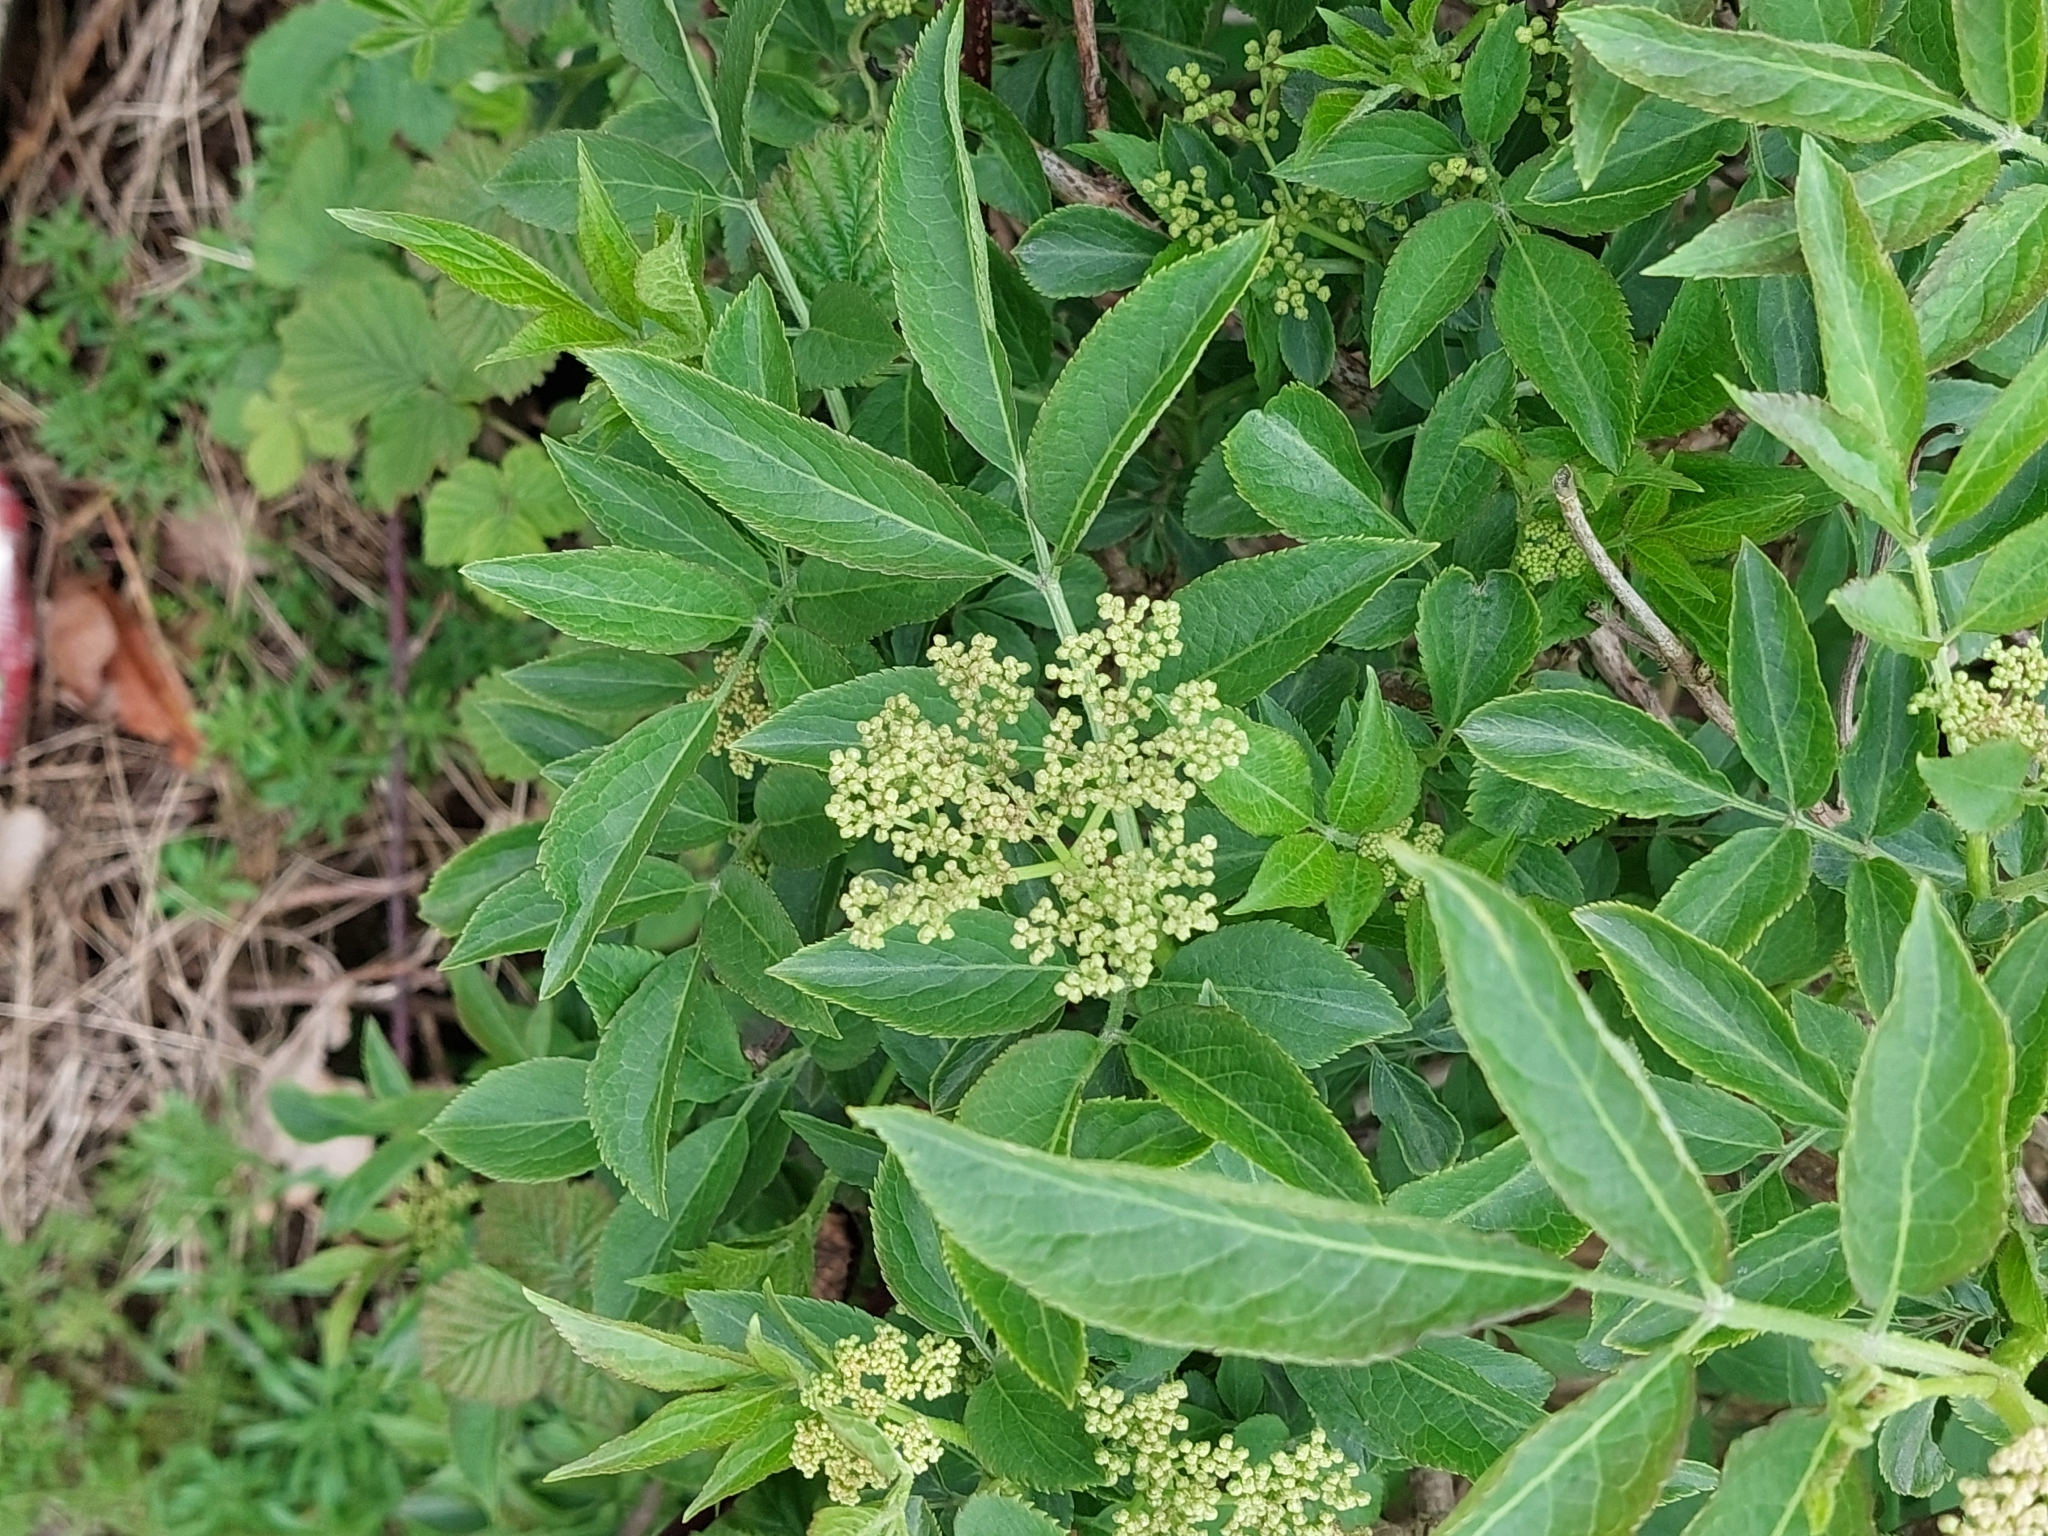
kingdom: Plantae
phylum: Tracheophyta
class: Magnoliopsida
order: Dipsacales
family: Viburnaceae
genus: Sambucus
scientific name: Sambucus nigra
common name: Elder
